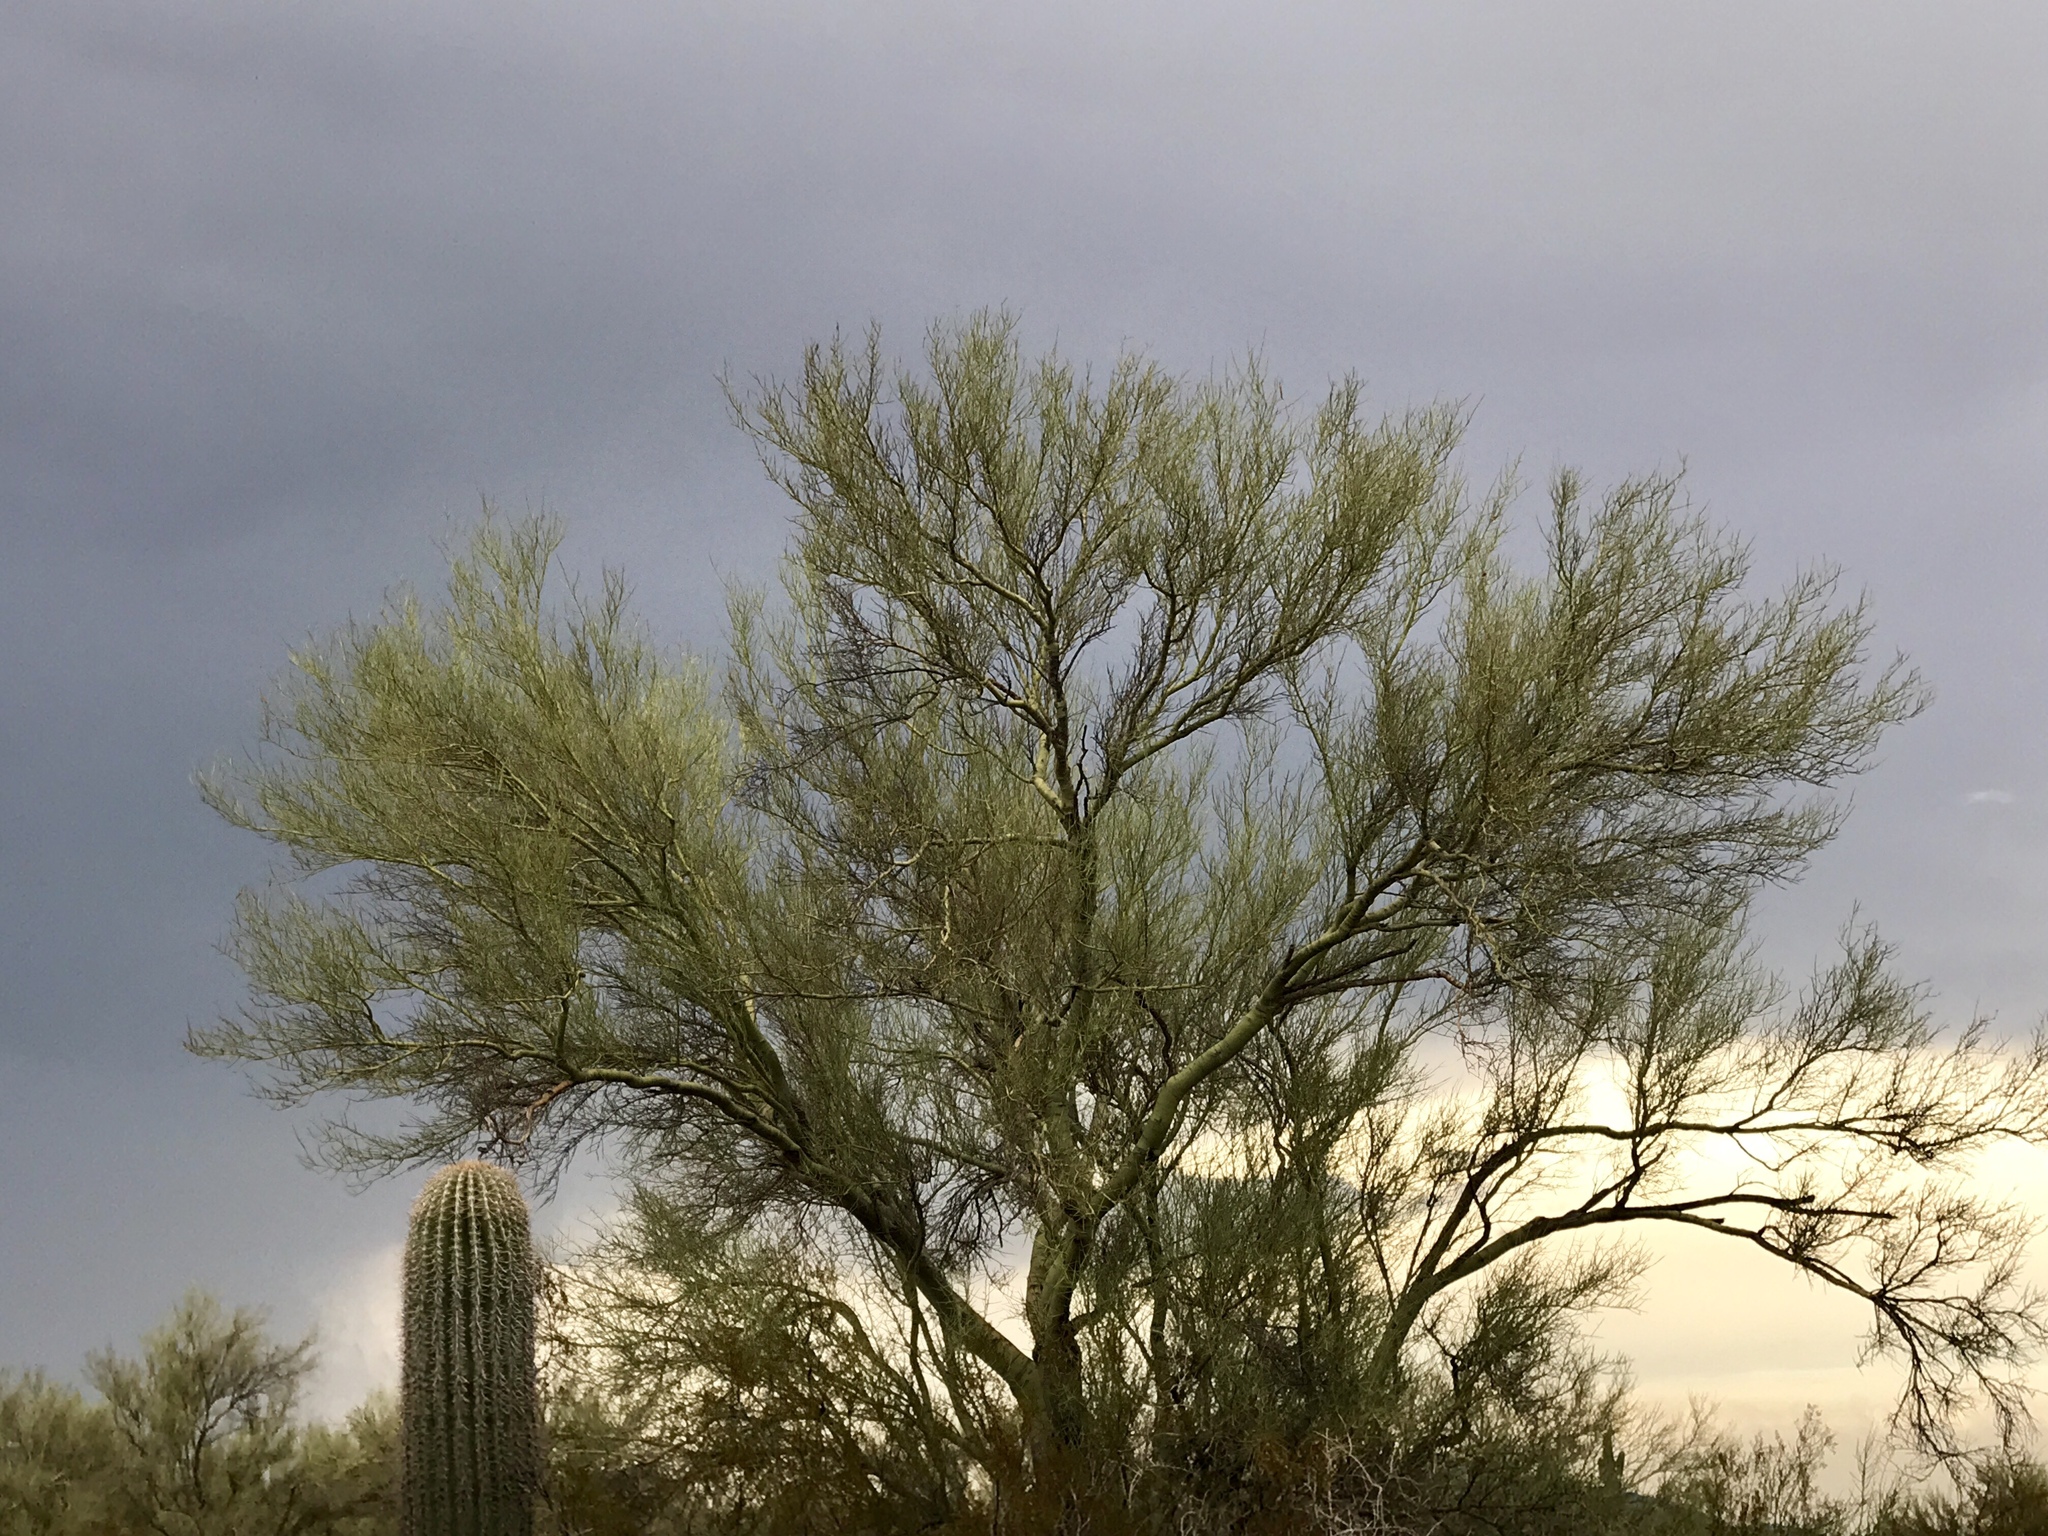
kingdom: Plantae
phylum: Tracheophyta
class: Magnoliopsida
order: Fabales
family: Fabaceae
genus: Parkinsonia
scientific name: Parkinsonia florida
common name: Blue paloverde
